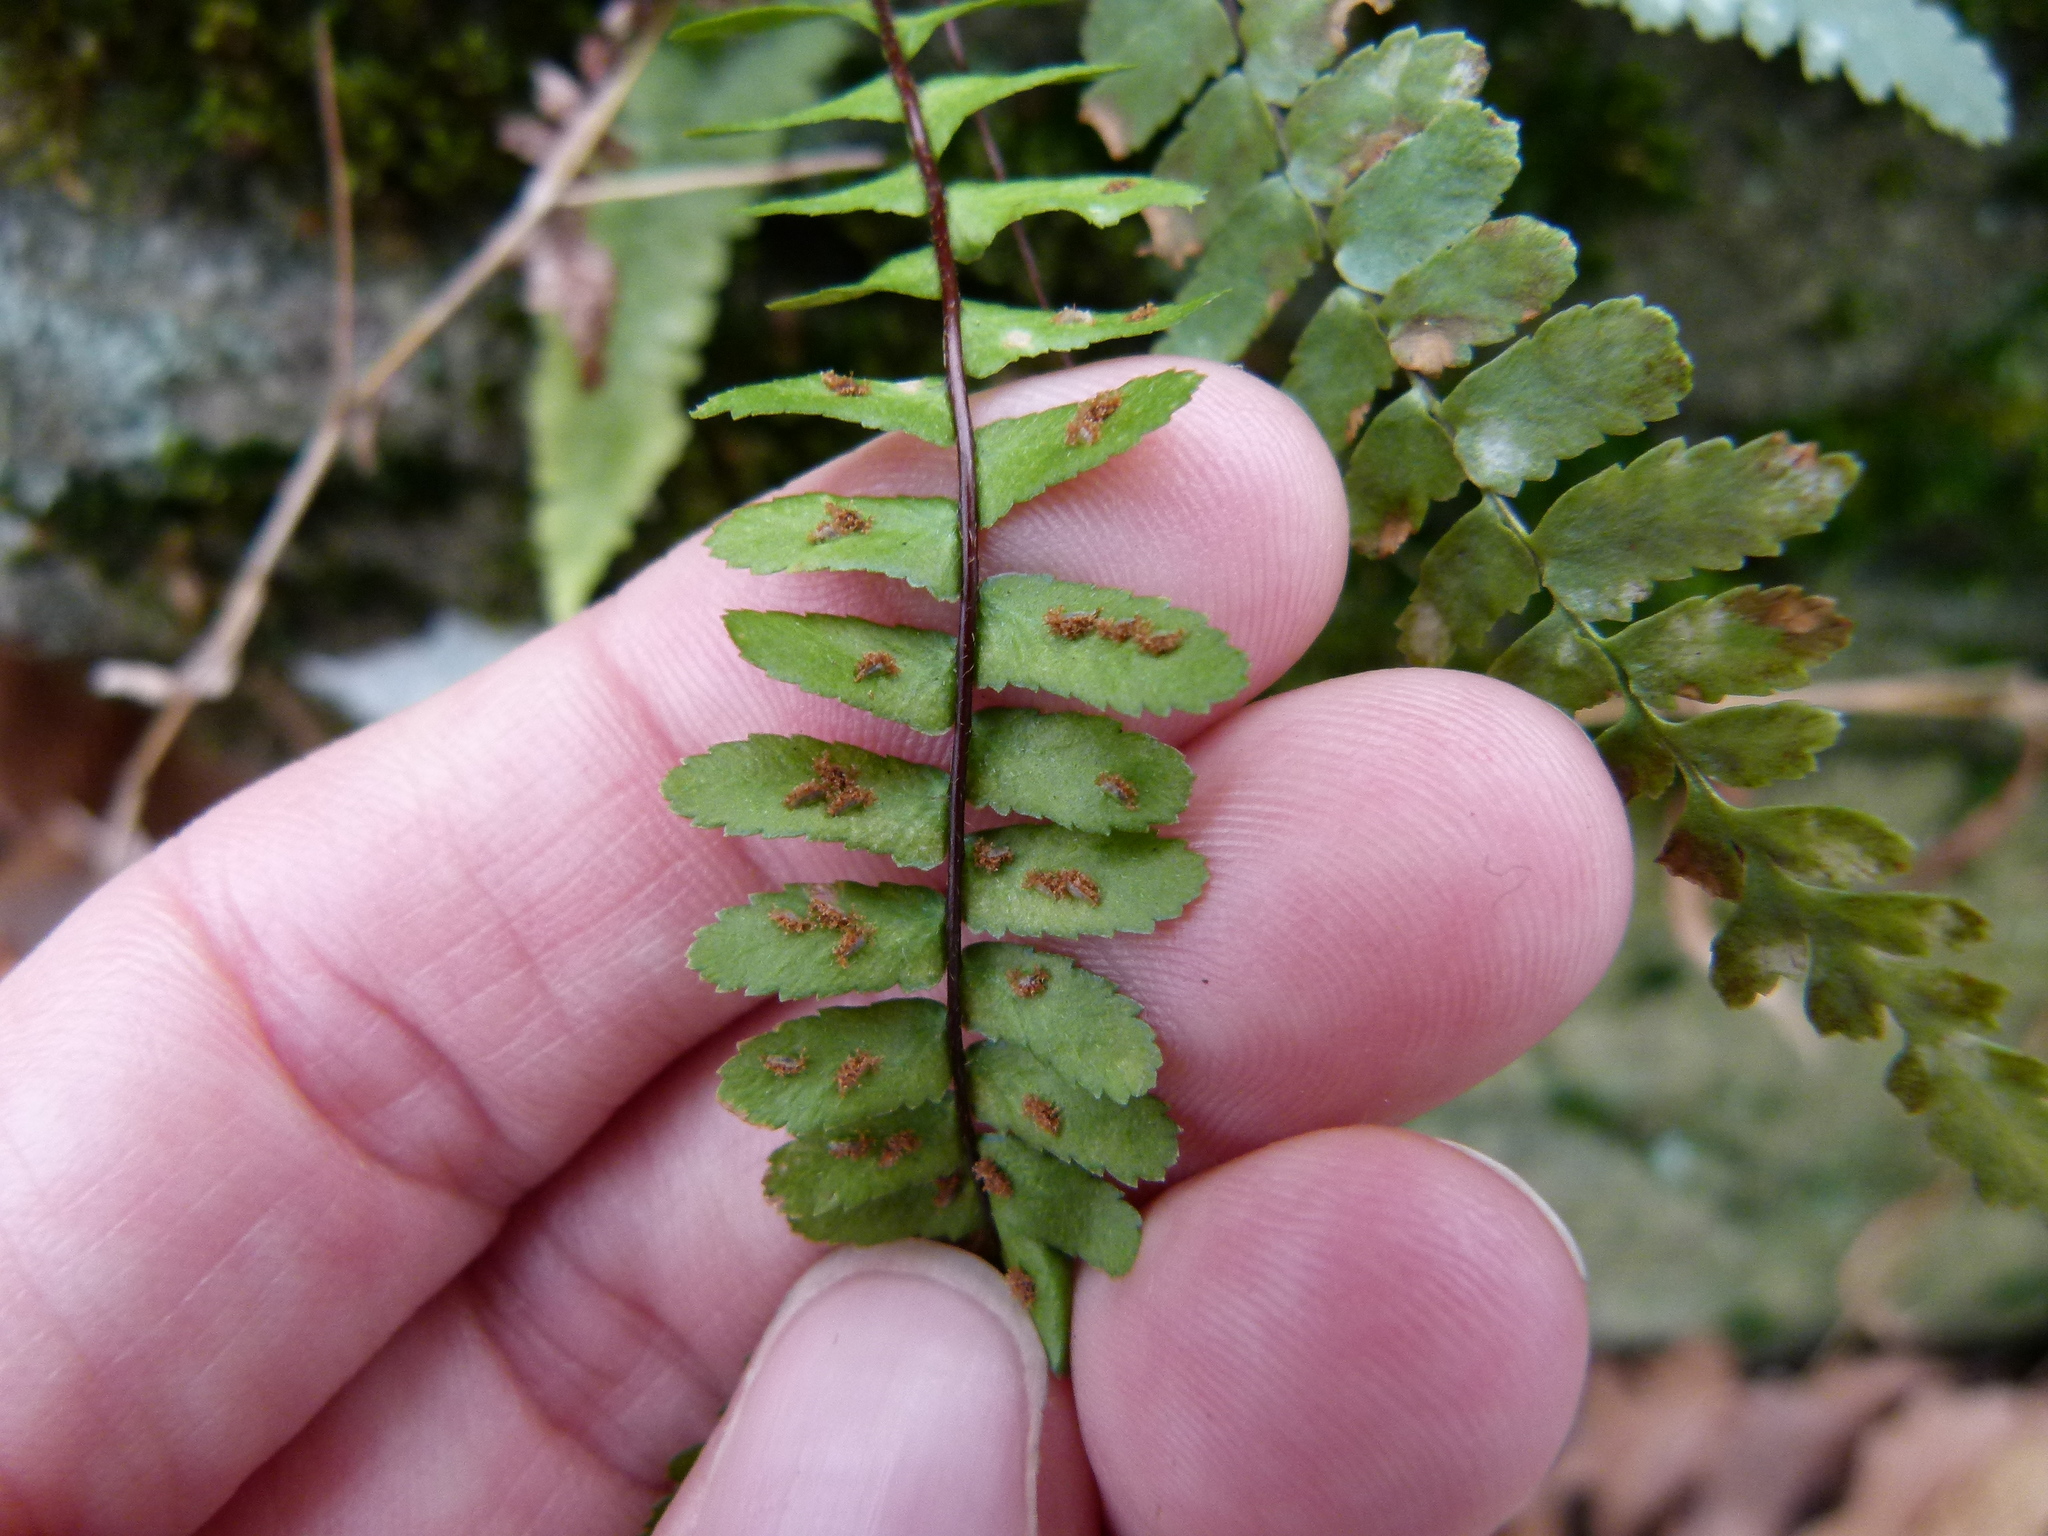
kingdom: Plantae
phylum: Tracheophyta
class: Polypodiopsida
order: Polypodiales
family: Aspleniaceae
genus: Asplenium
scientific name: Asplenium platyneuron
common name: Ebony spleenwort
